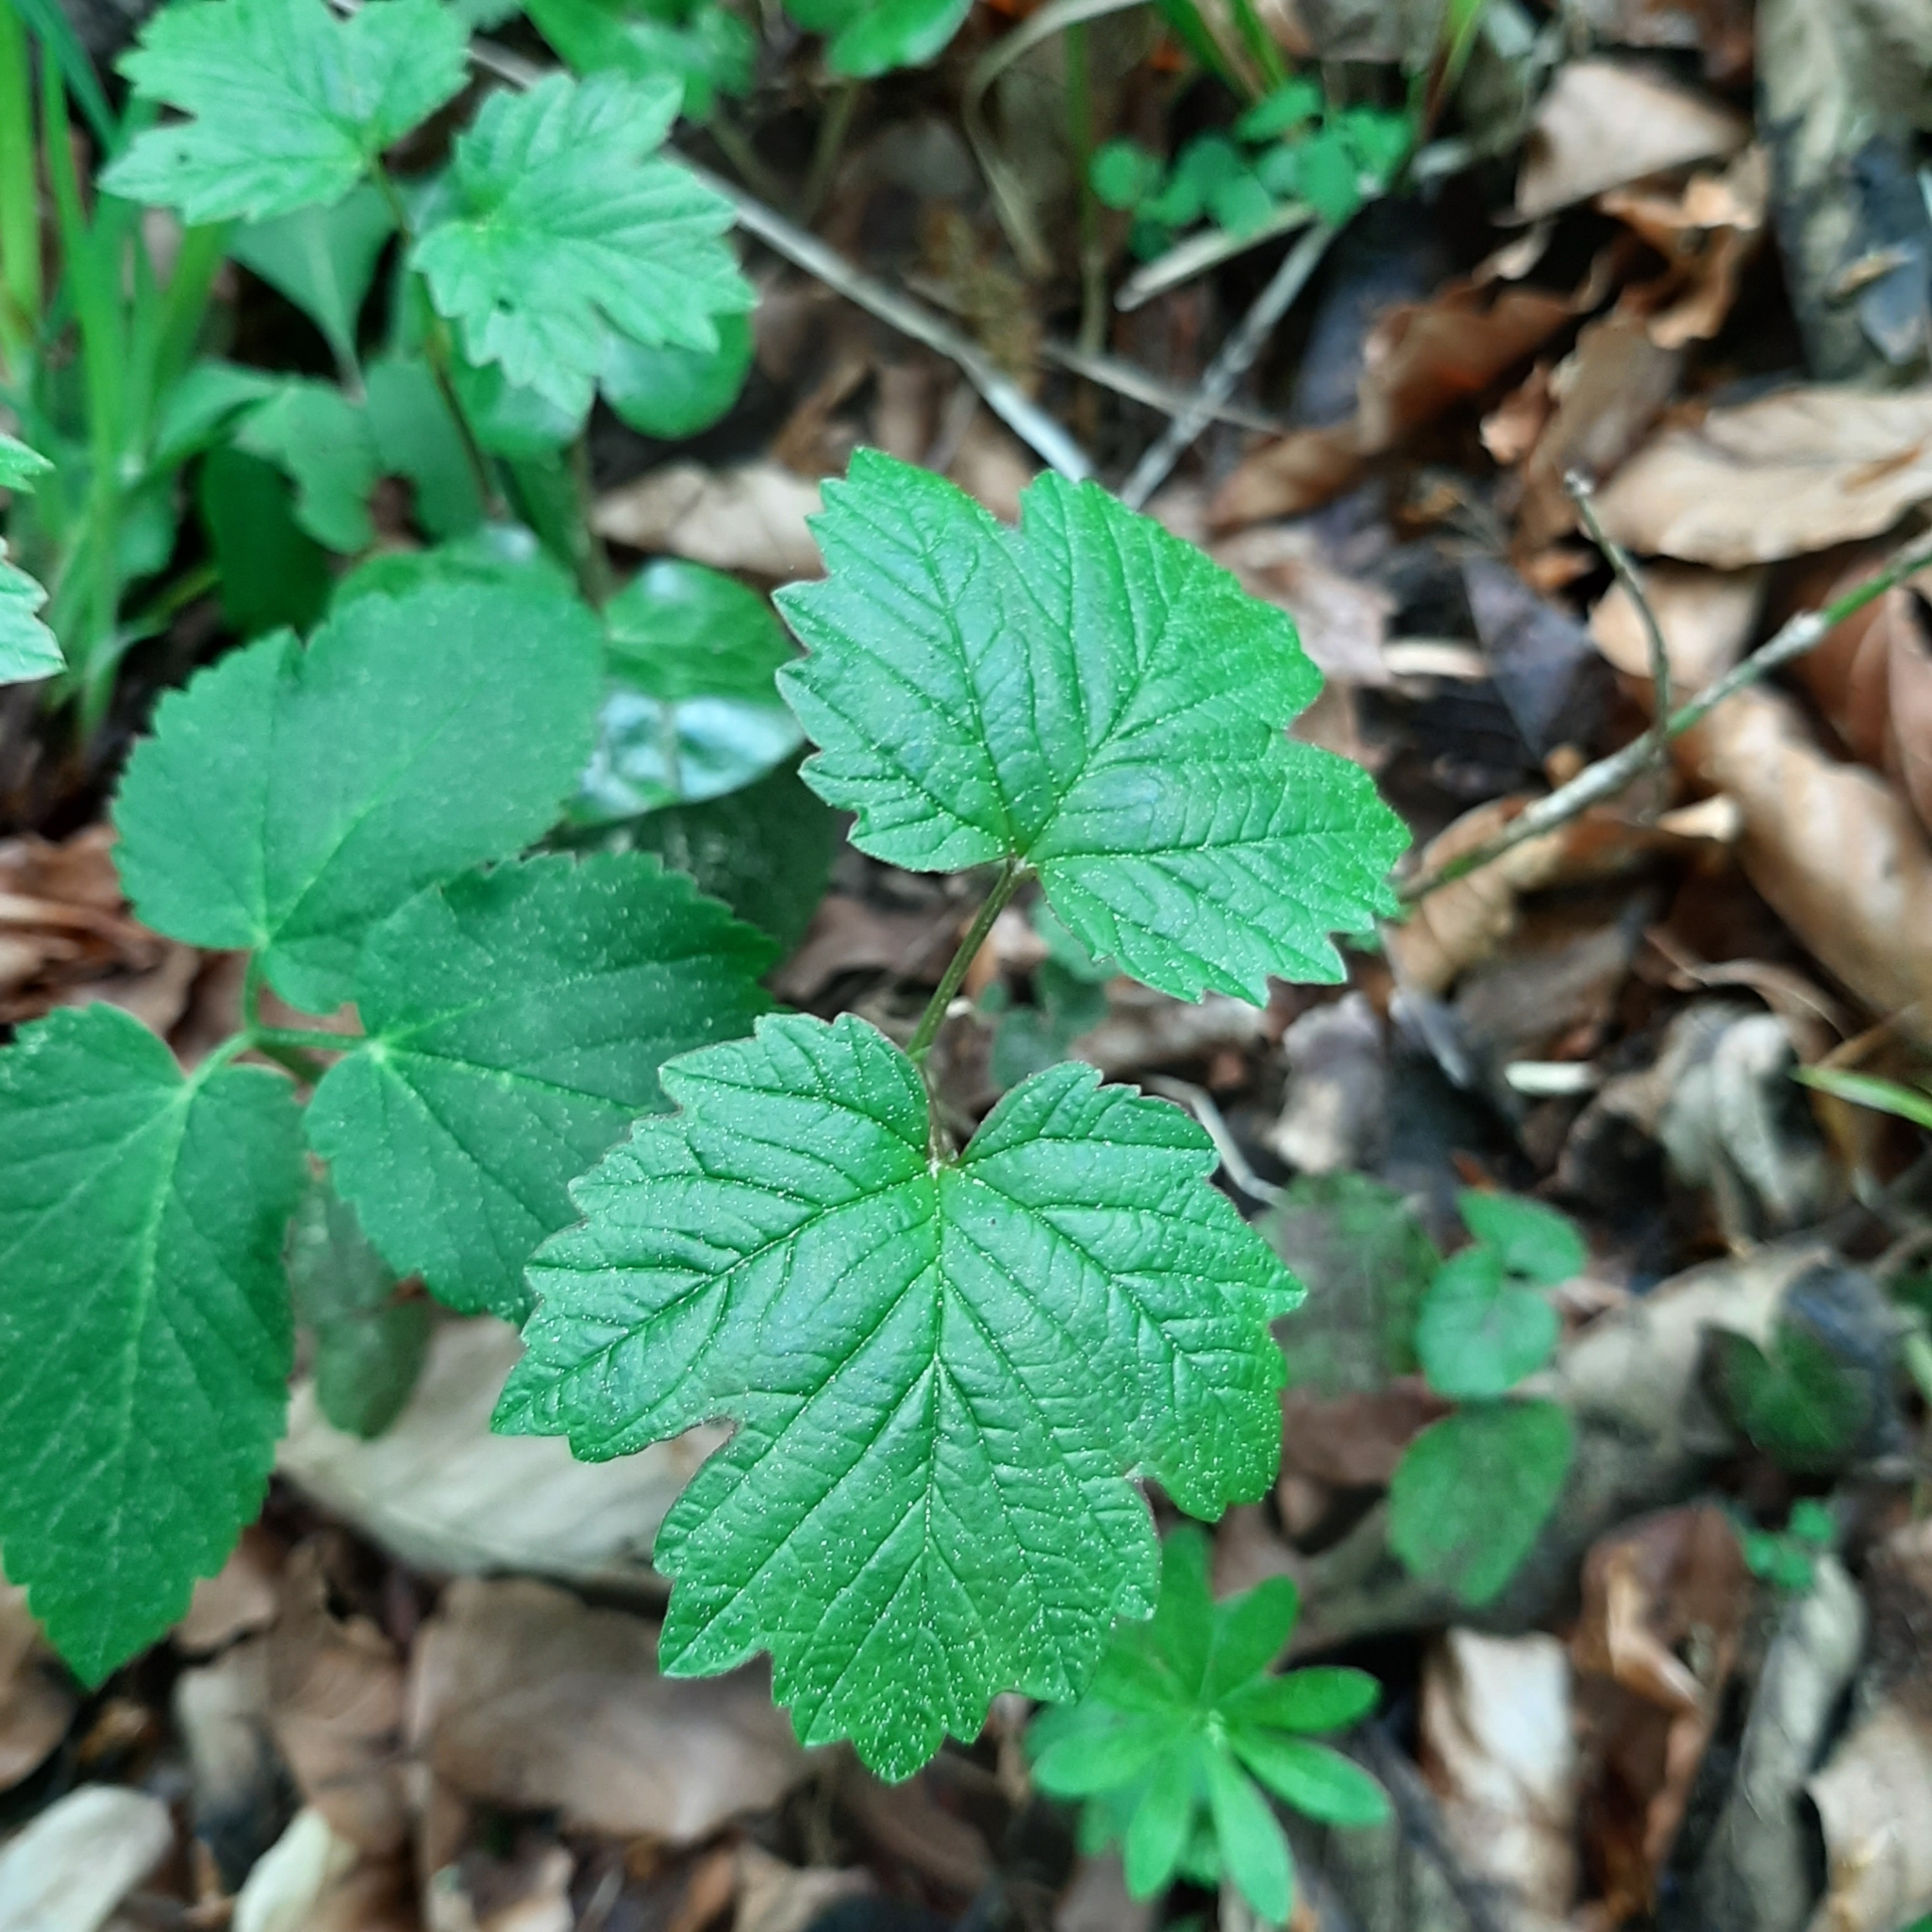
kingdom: Plantae
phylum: Tracheophyta
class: Magnoliopsida
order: Dipsacales
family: Viburnaceae
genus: Viburnum
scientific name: Viburnum opulus
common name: Guelder-rose
